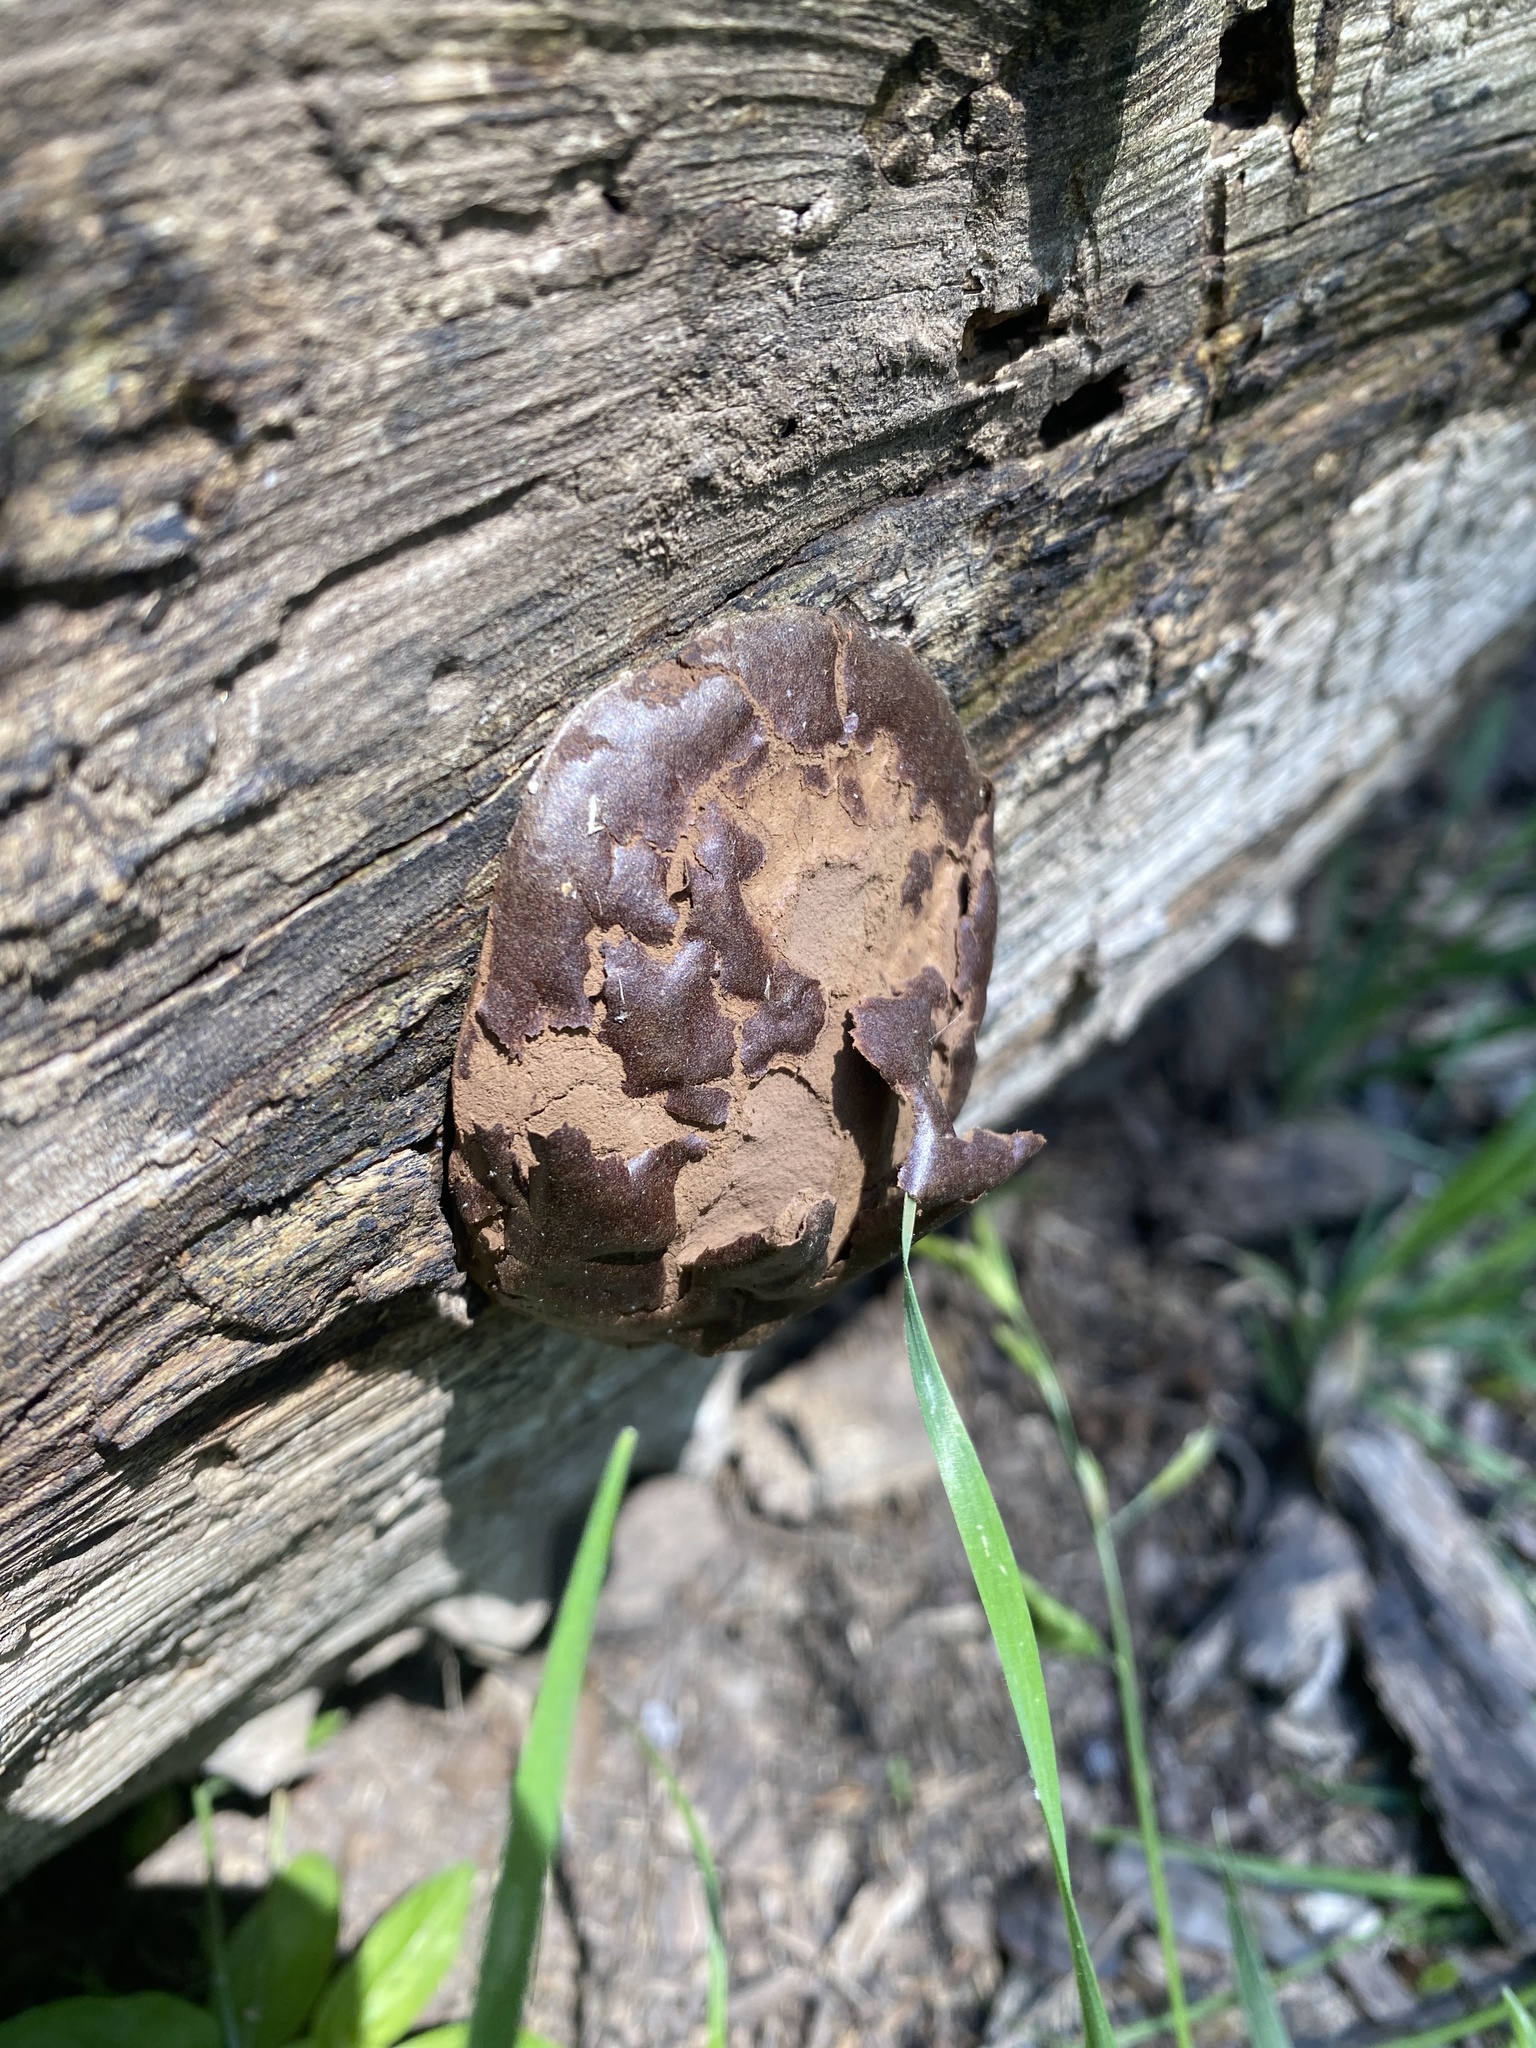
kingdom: Protozoa
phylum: Mycetozoa
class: Myxomycetes
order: Cribrariales
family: Tubiferaceae
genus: Reticularia
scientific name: Reticularia splendens
